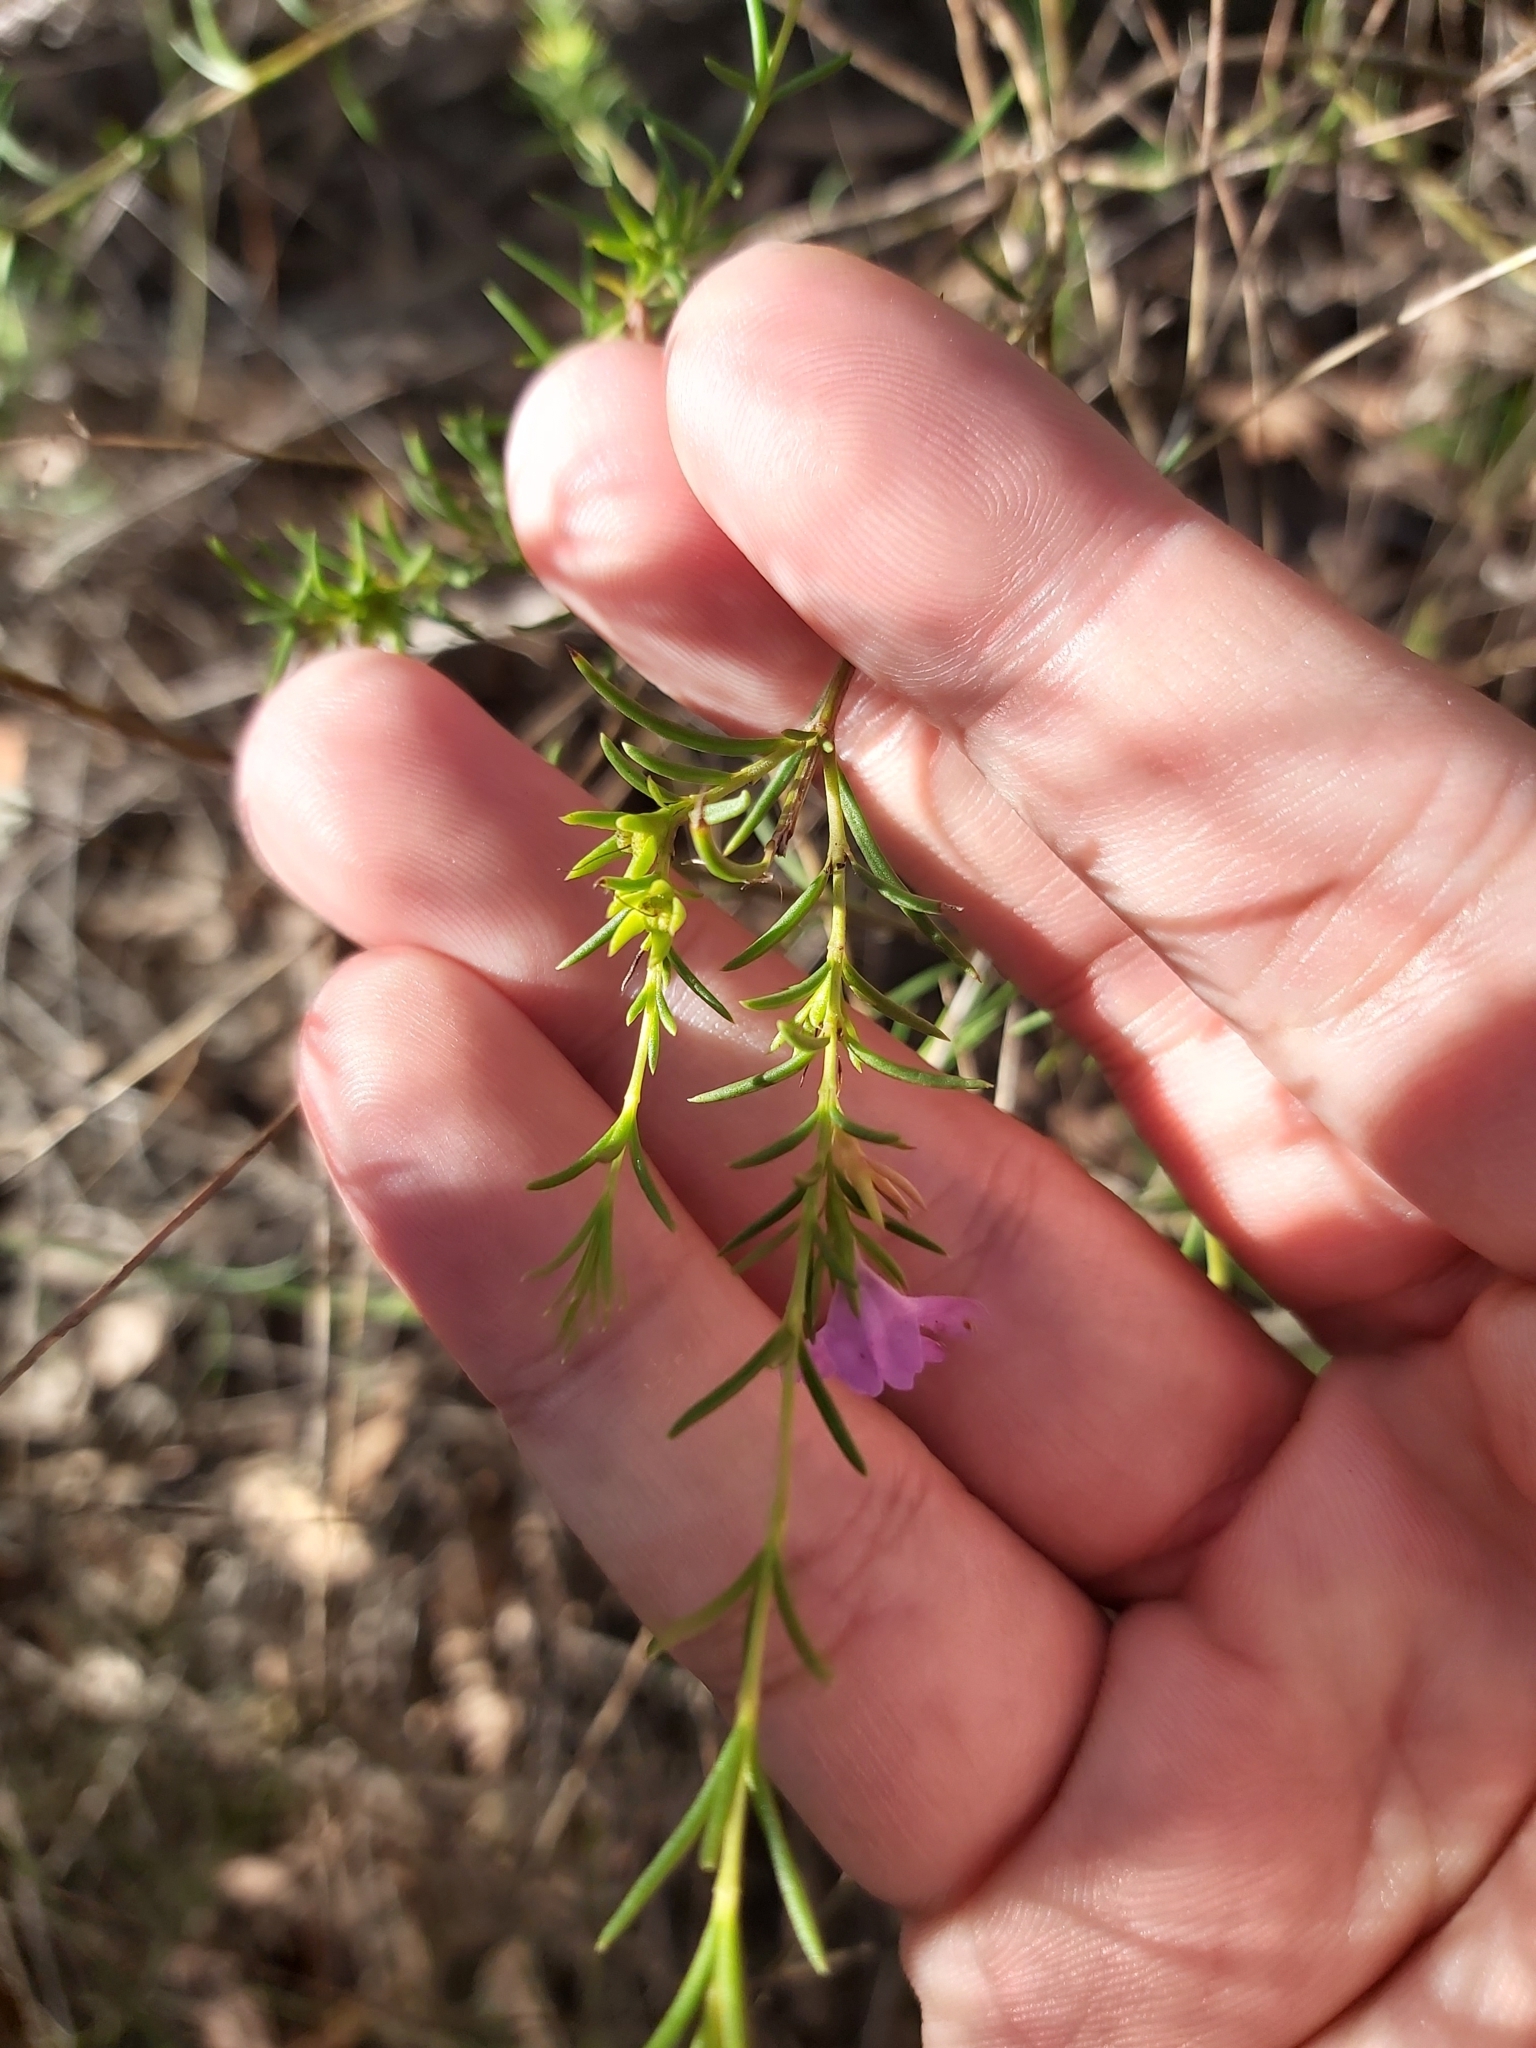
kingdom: Plantae
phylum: Tracheophyta
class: Magnoliopsida
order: Lamiales
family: Lamiaceae
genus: Hemigenia
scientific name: Hemigenia purpurea
